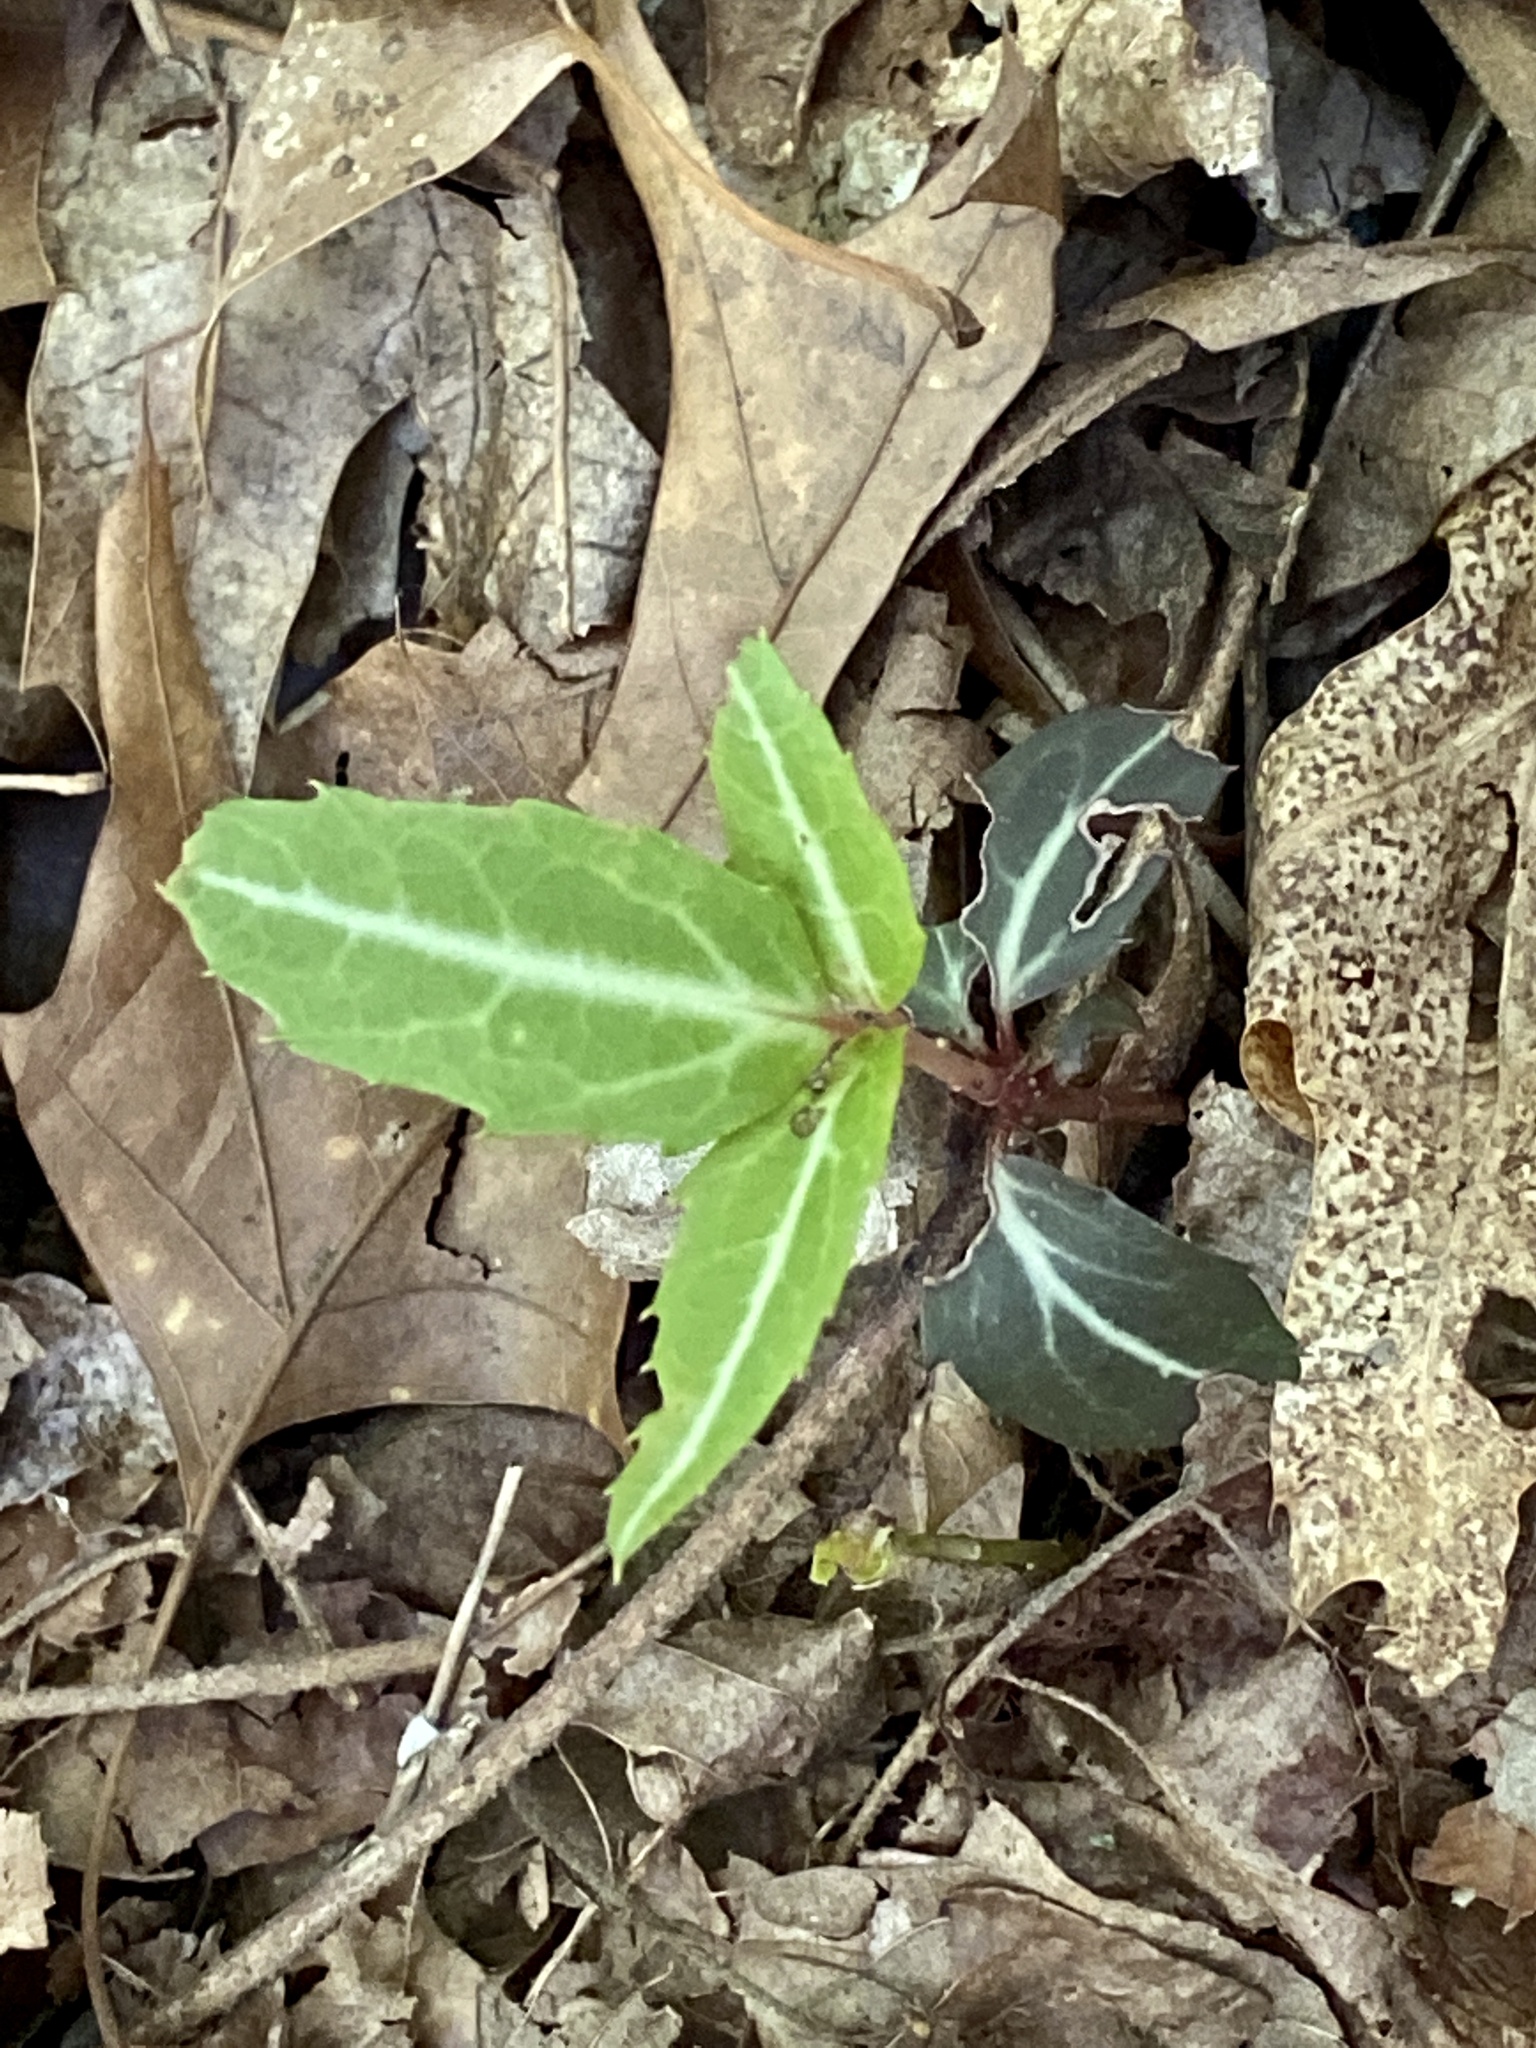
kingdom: Plantae
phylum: Tracheophyta
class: Magnoliopsida
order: Ericales
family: Ericaceae
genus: Chimaphila
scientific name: Chimaphila maculata
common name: Spotted pipsissewa
